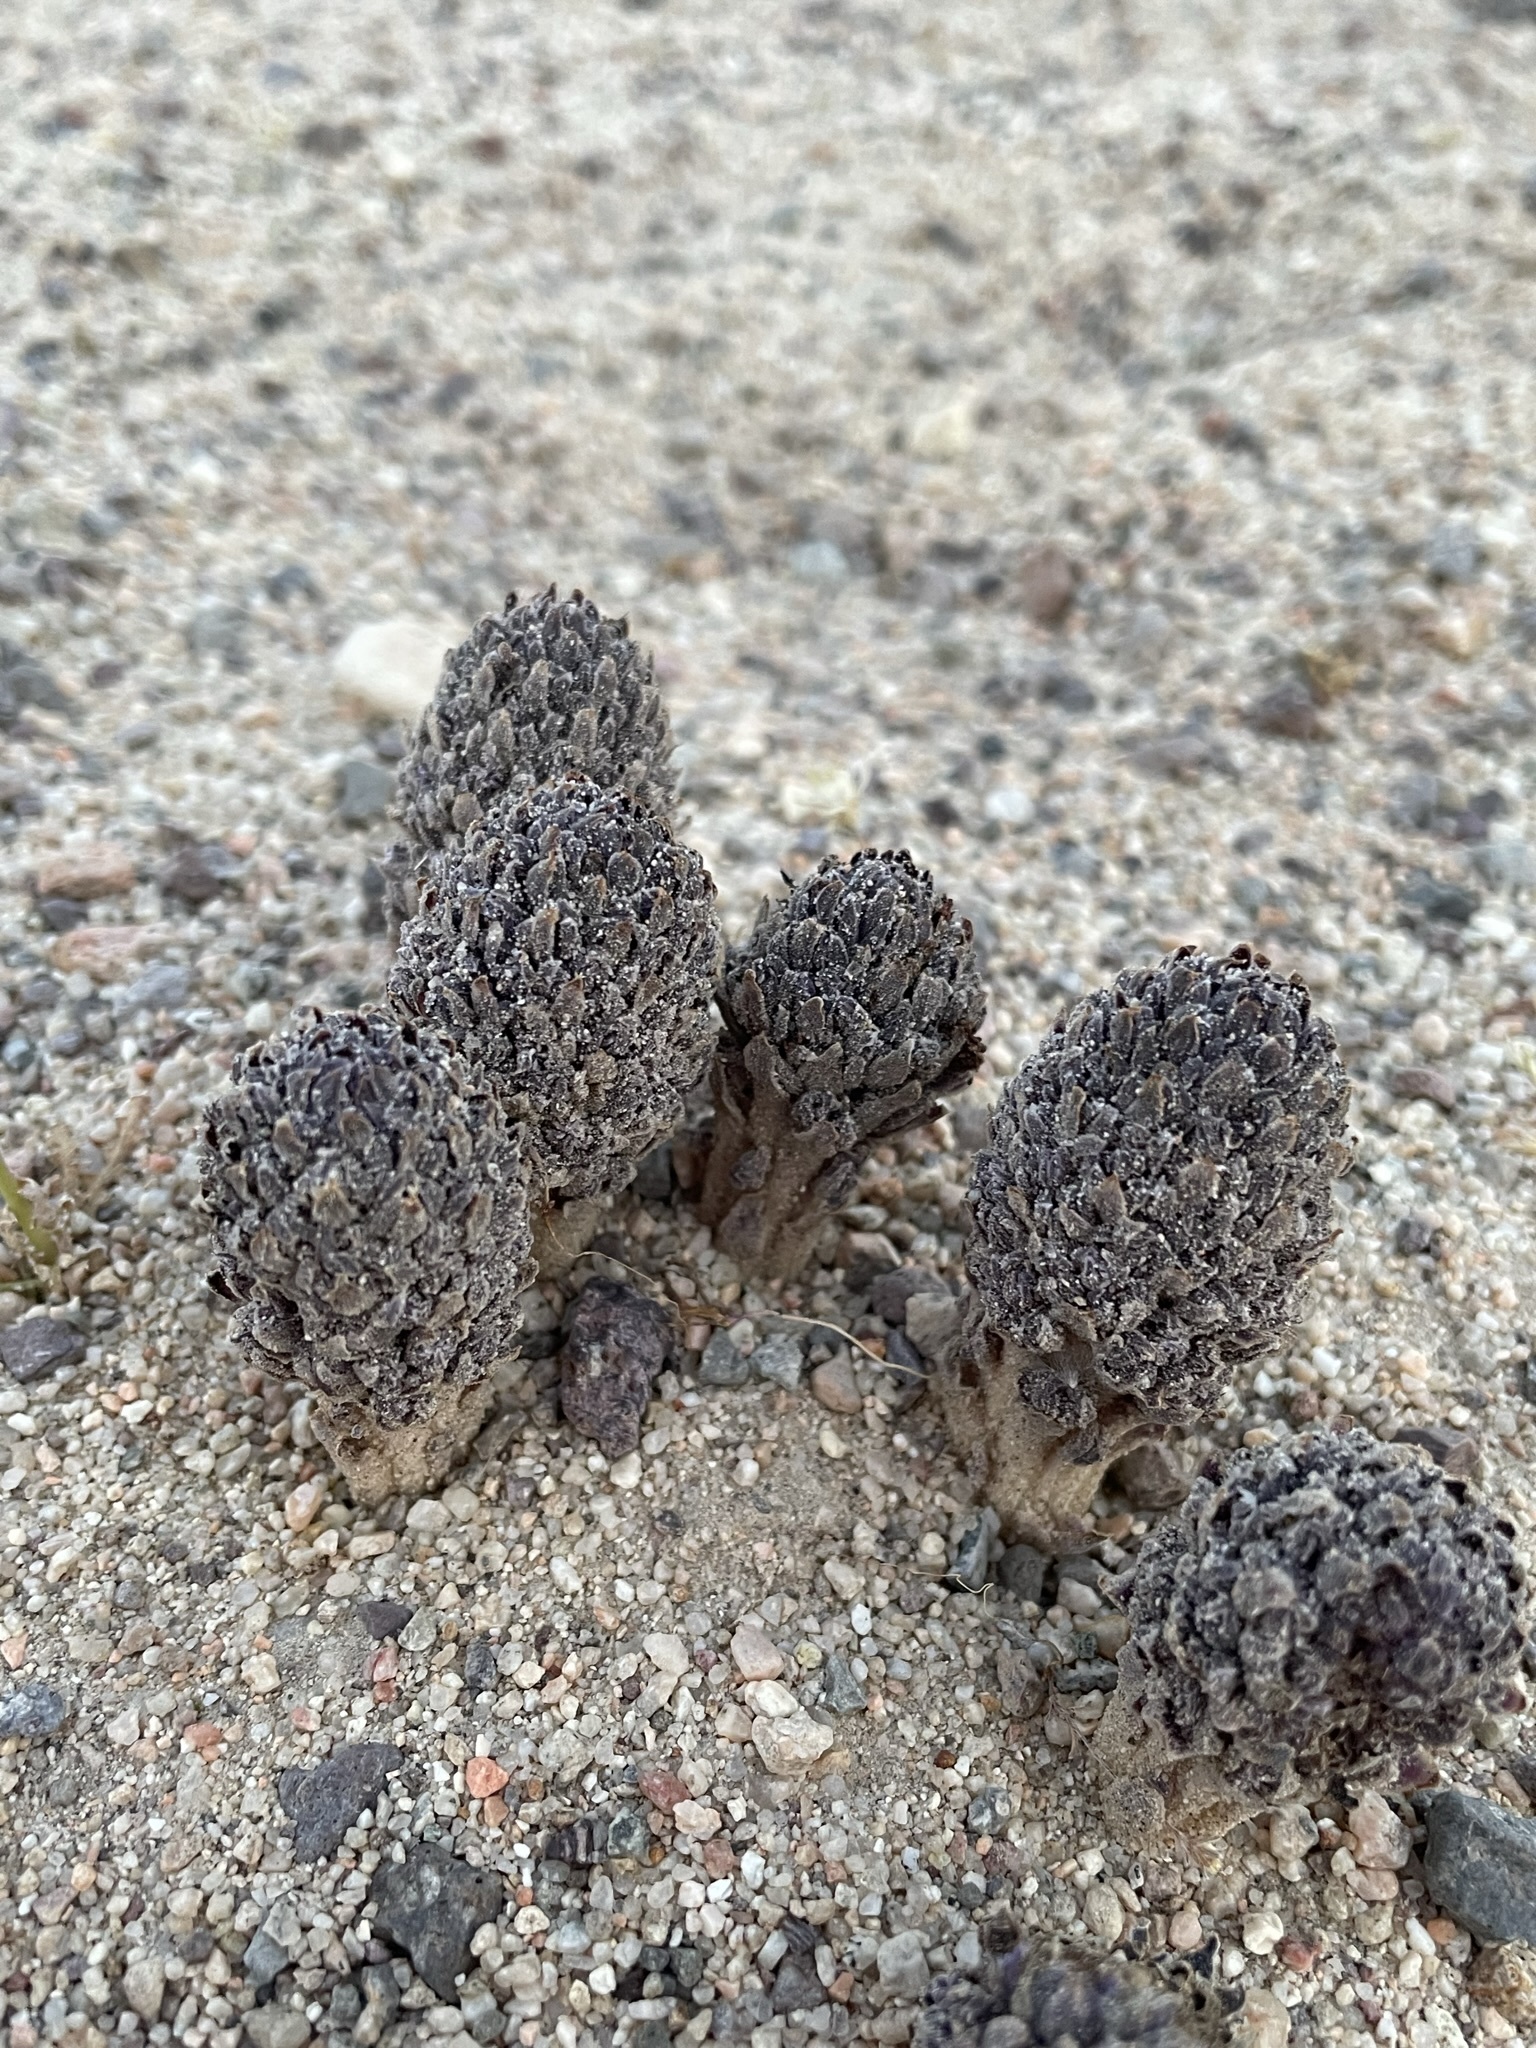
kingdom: Plantae
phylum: Tracheophyta
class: Magnoliopsida
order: Boraginales
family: Lennoaceae
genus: Pholisma
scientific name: Pholisma arenarium
